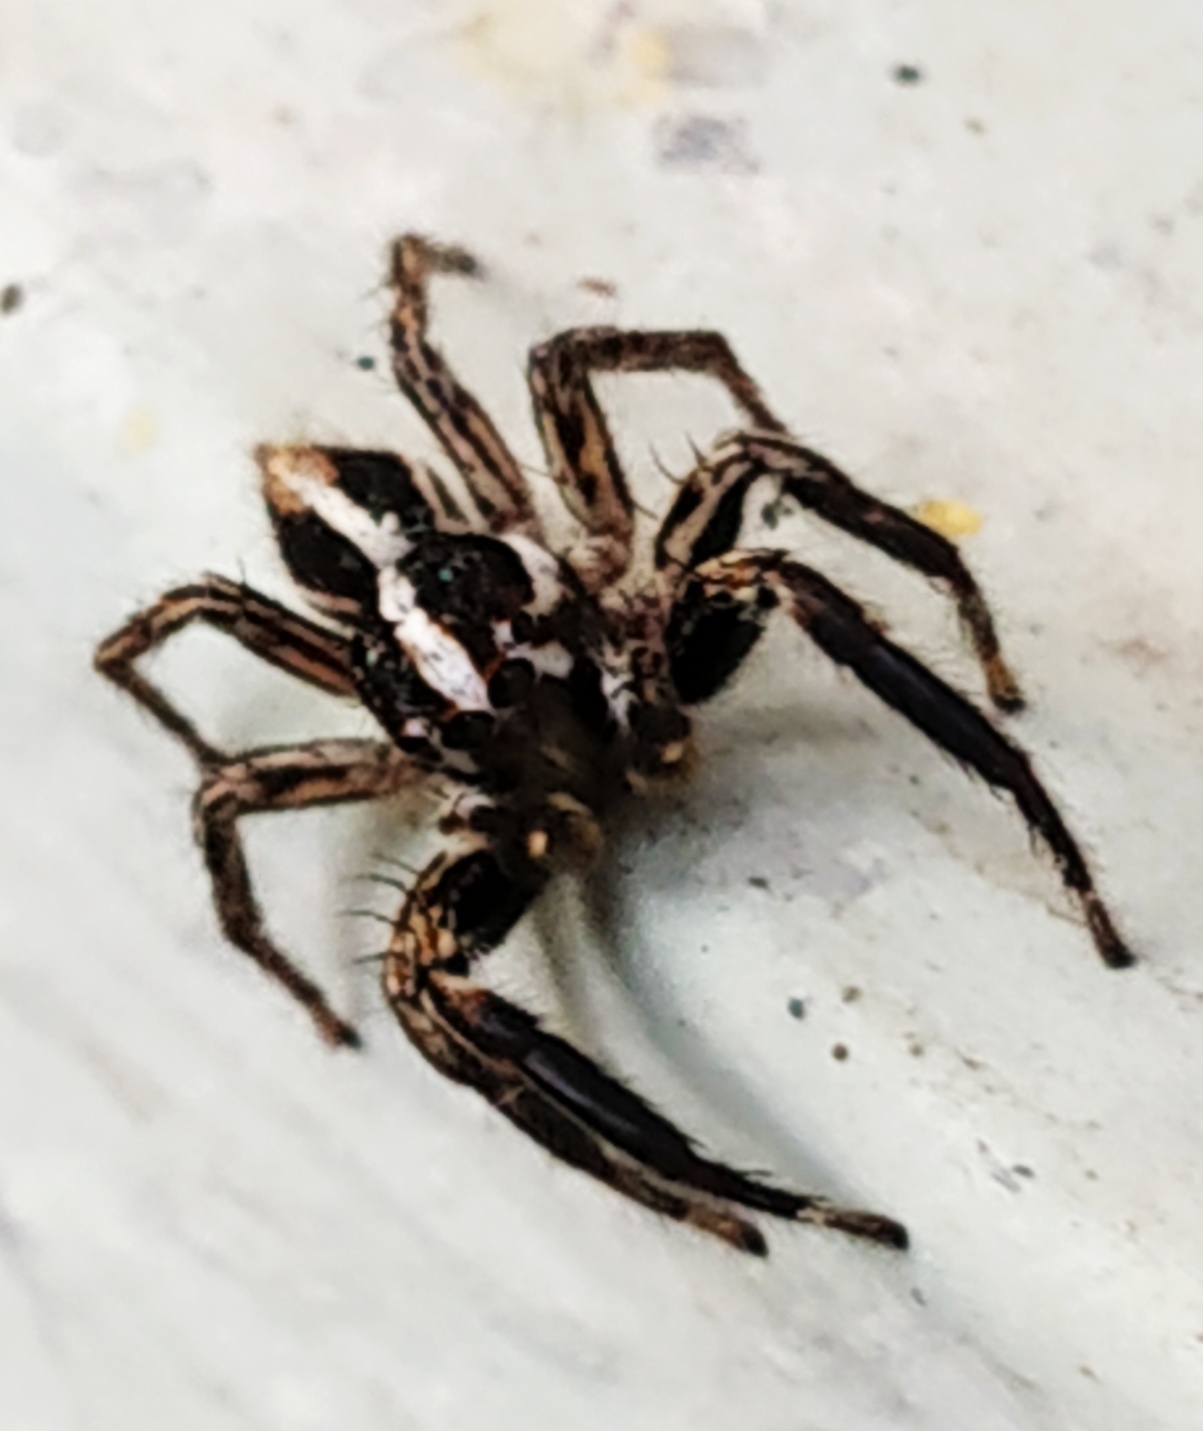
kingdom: Animalia
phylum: Arthropoda
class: Arachnida
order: Araneae
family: Salticidae
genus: Plexippus
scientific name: Plexippus paykulli
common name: Pantropical jumper
